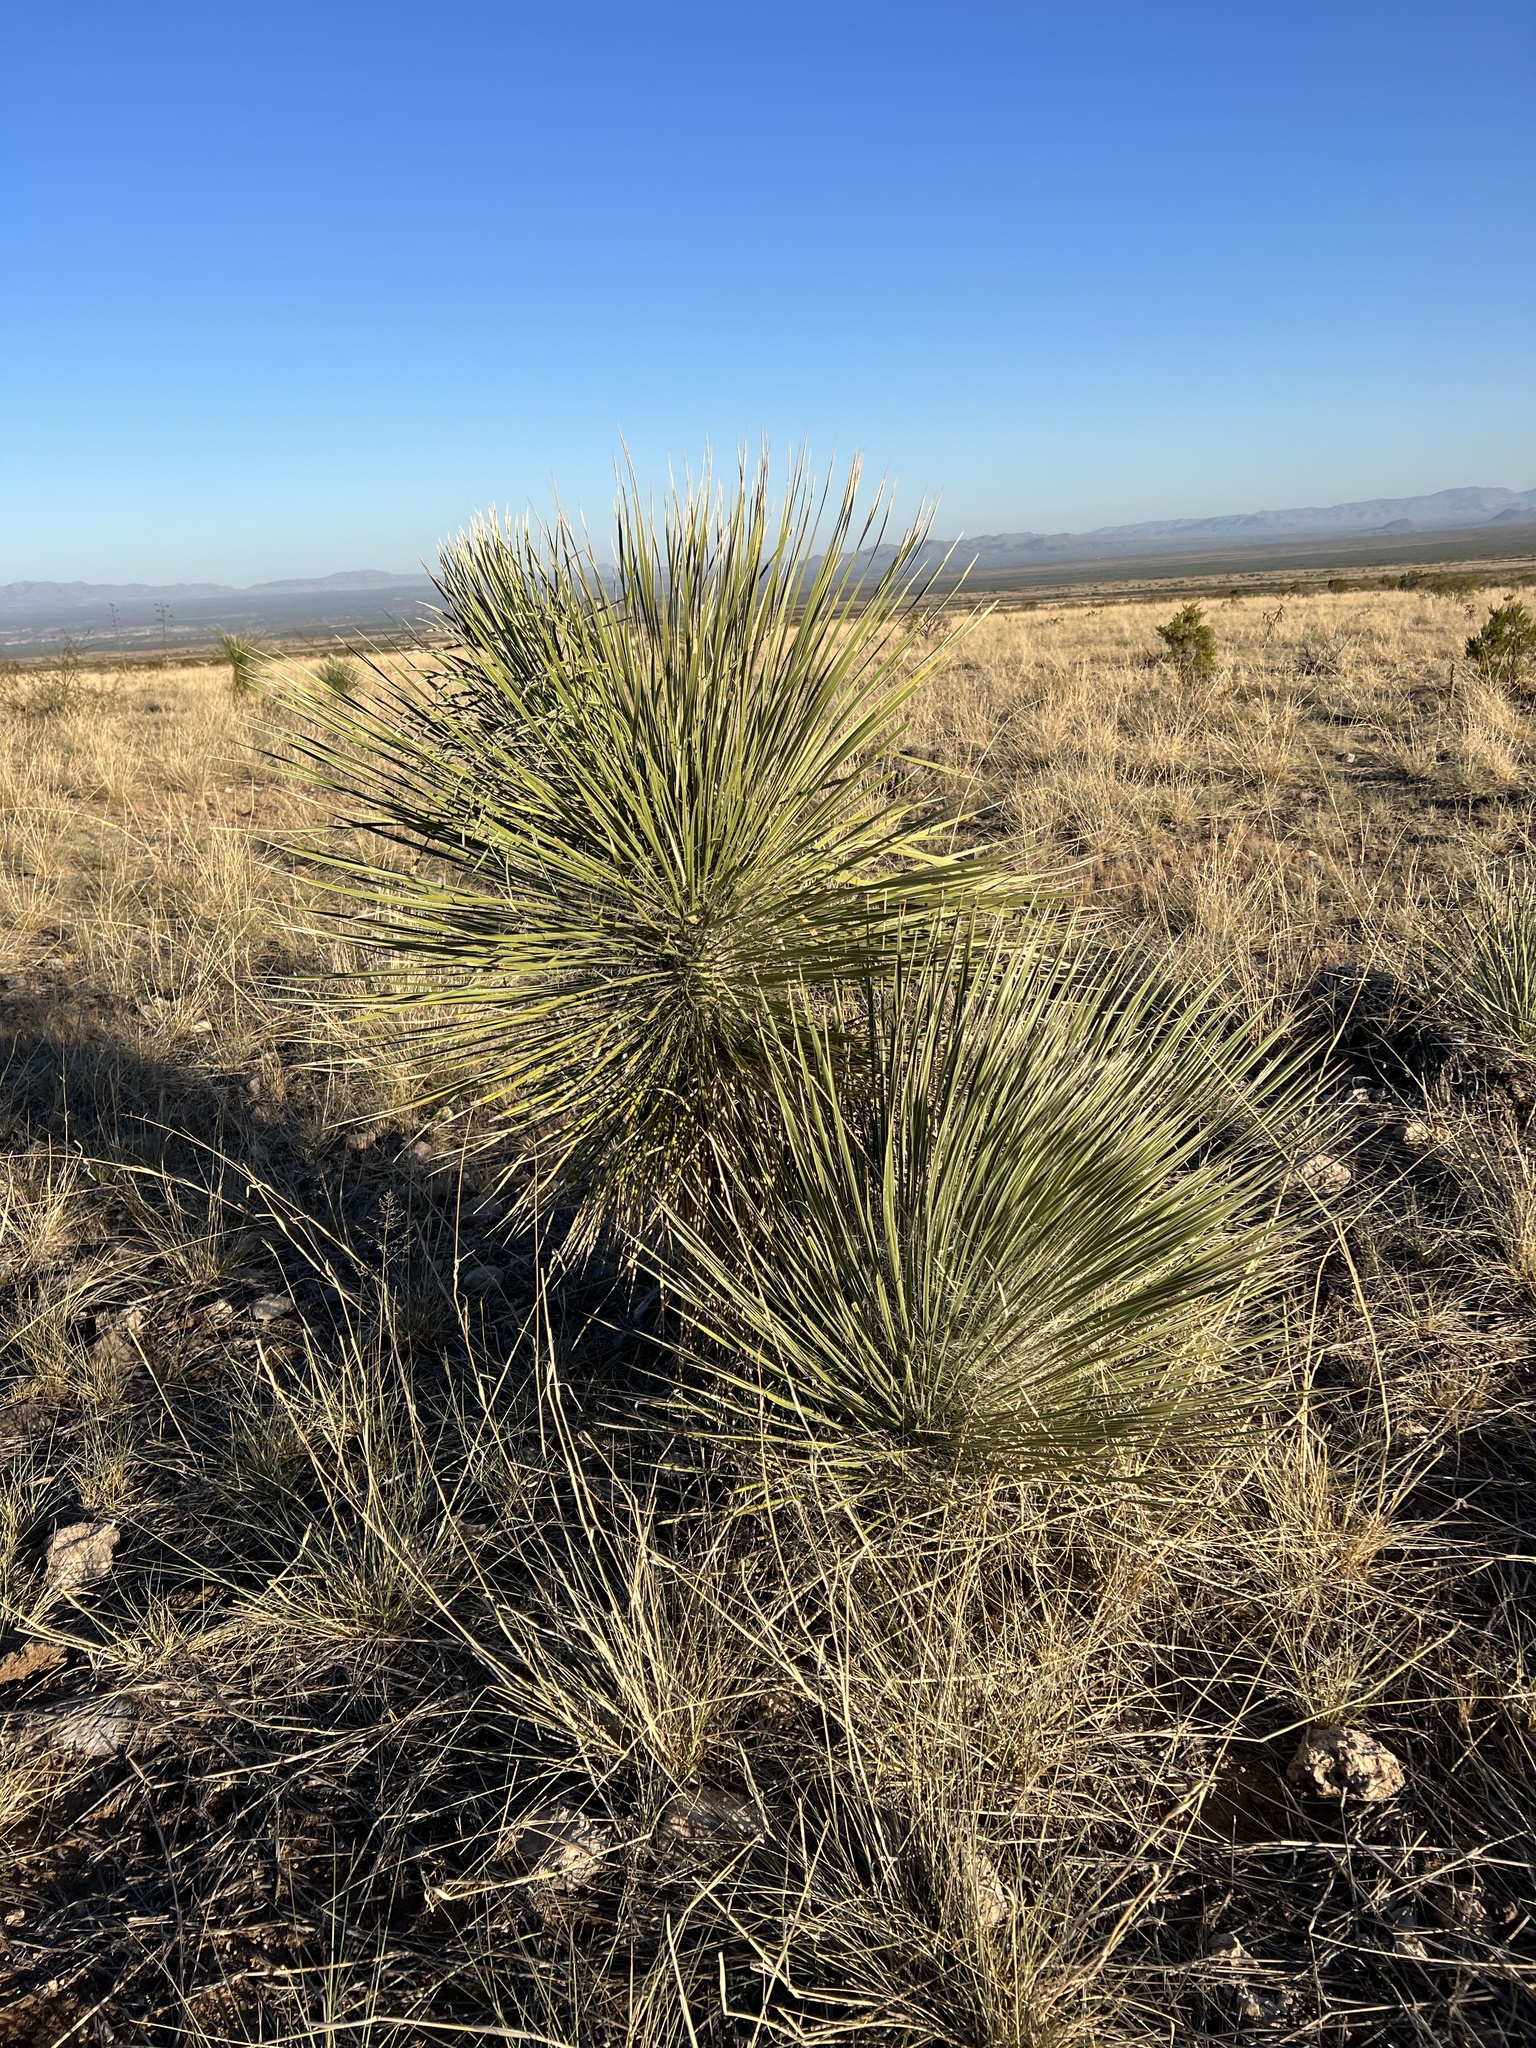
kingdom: Plantae
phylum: Tracheophyta
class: Liliopsida
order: Asparagales
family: Asparagaceae
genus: Yucca
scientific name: Yucca elata
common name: Palmella
